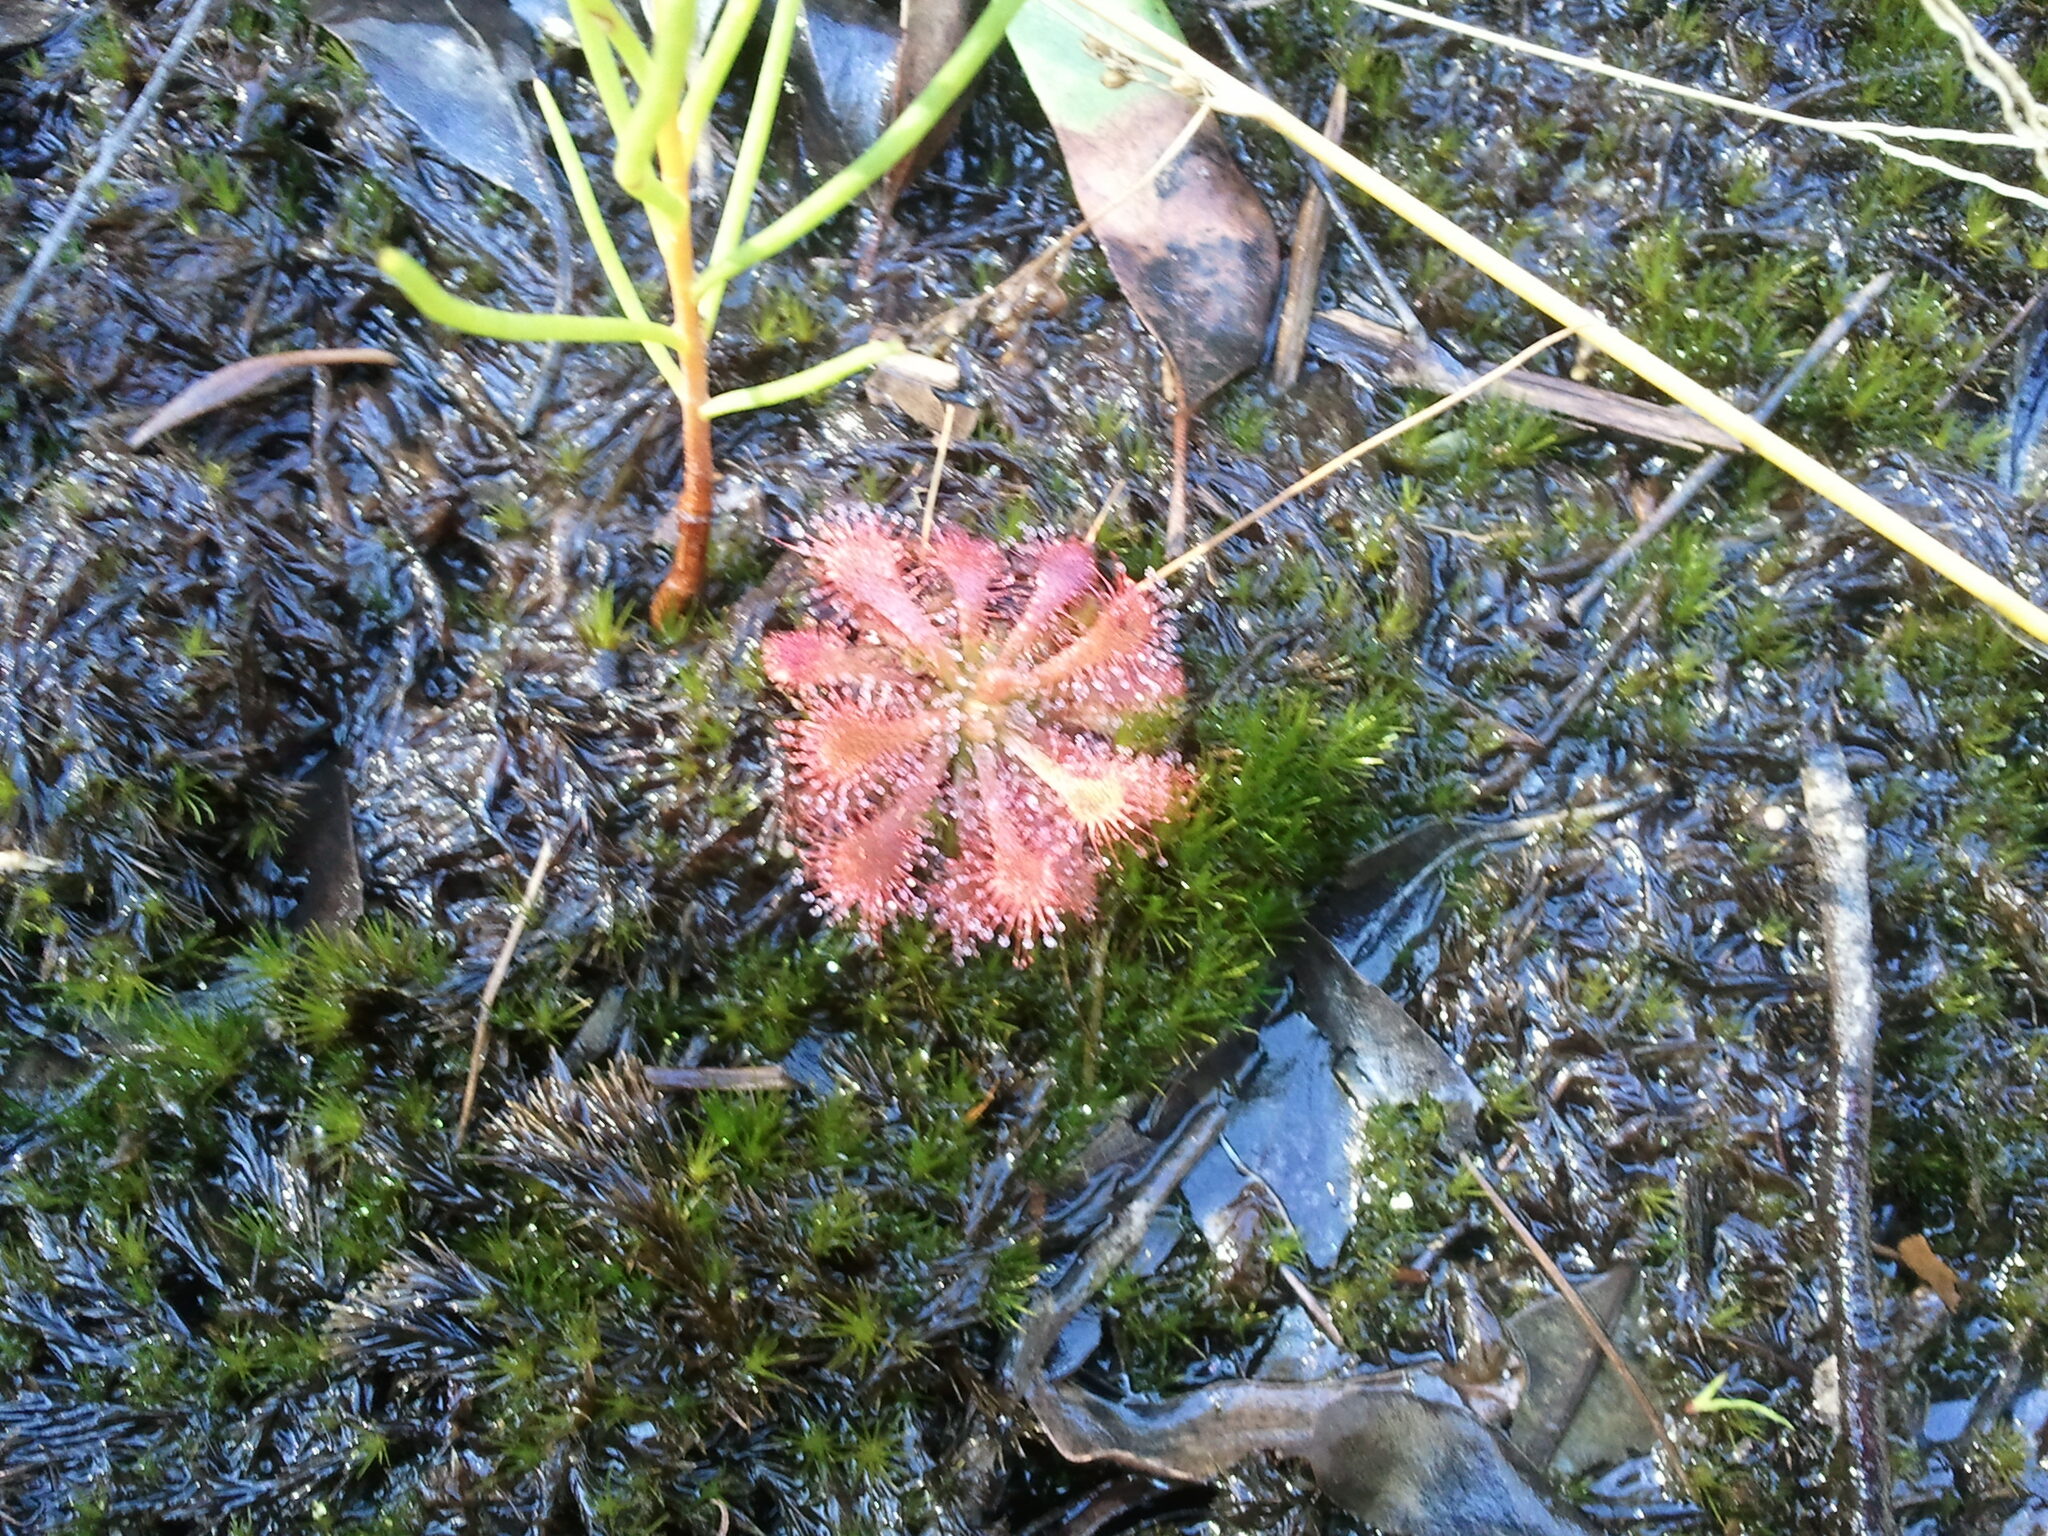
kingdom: Plantae
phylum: Tracheophyta
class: Magnoliopsida
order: Caryophyllales
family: Droseraceae
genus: Drosera
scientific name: Drosera spatulata
